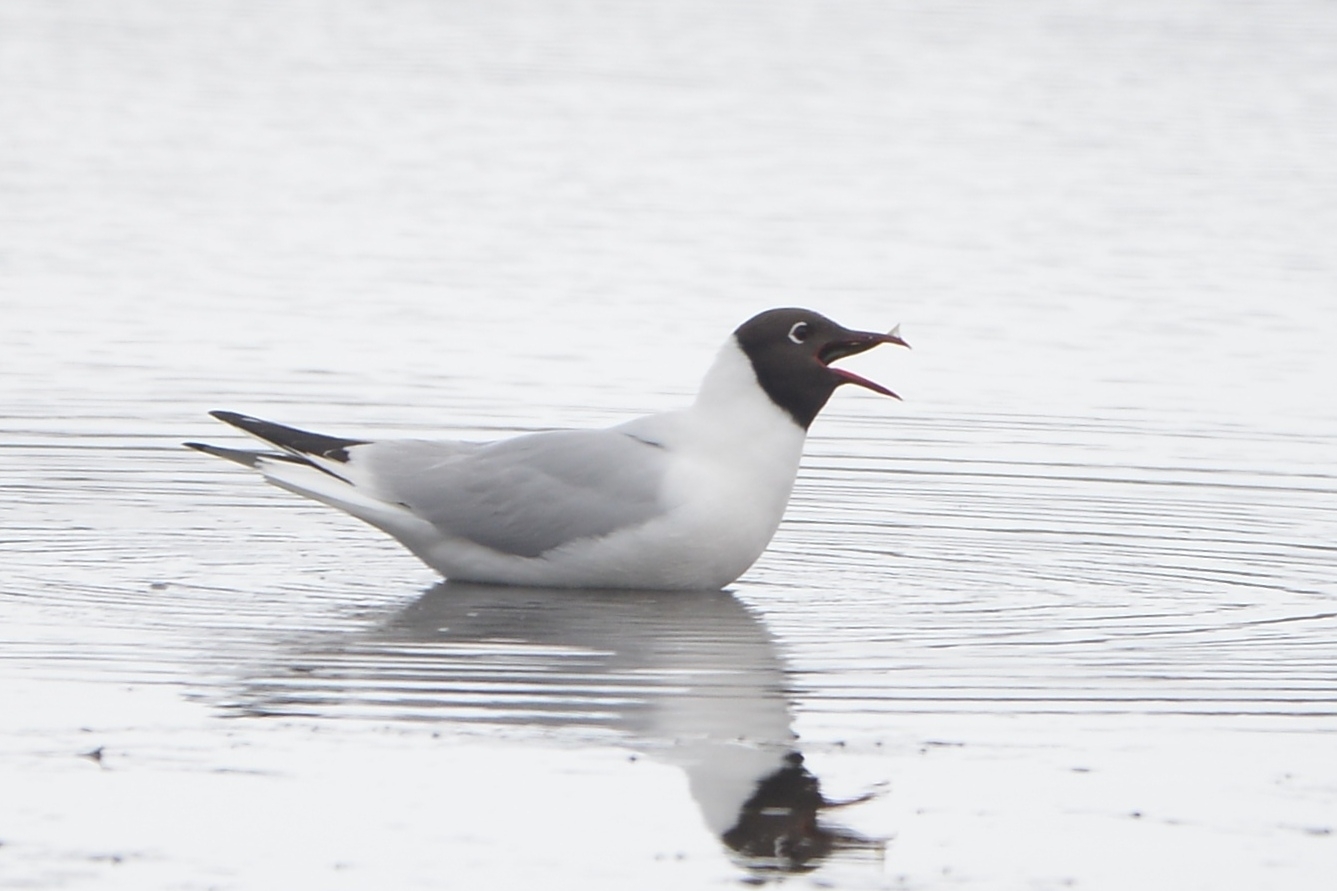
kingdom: Animalia
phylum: Chordata
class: Aves
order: Charadriiformes
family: Laridae
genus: Chroicocephalus
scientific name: Chroicocephalus ridibundus
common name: Black-headed gull
